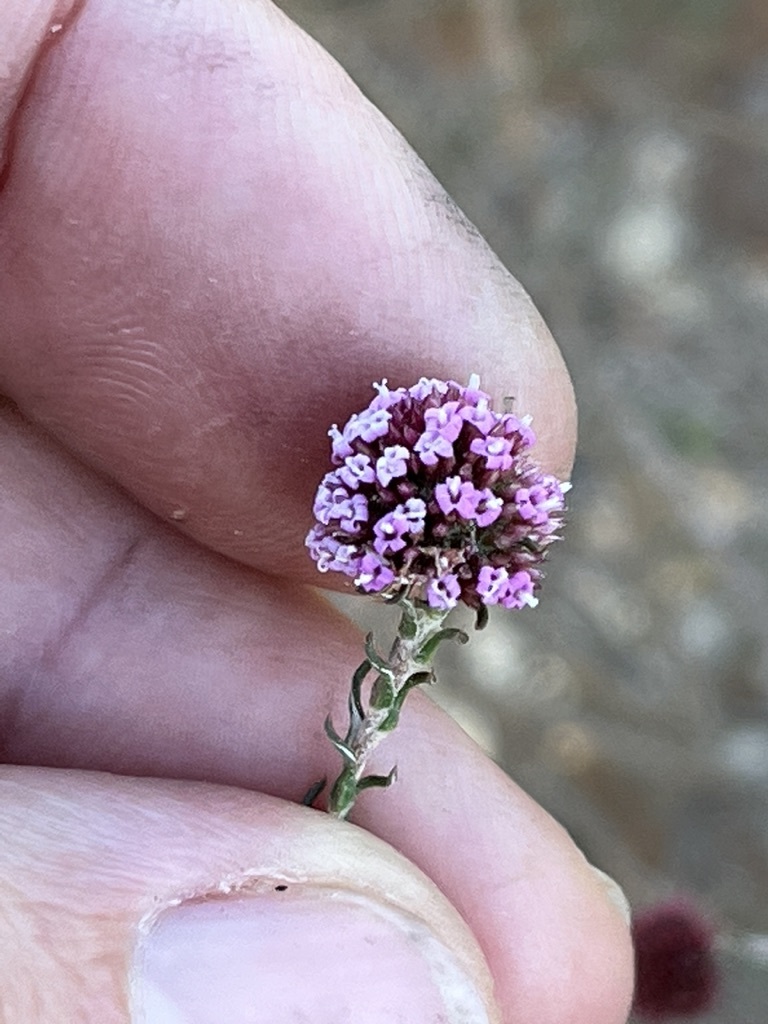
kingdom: Plantae
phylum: Tracheophyta
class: Magnoliopsida
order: Asterales
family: Asteraceae
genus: Stoebe
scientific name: Stoebe capitata
